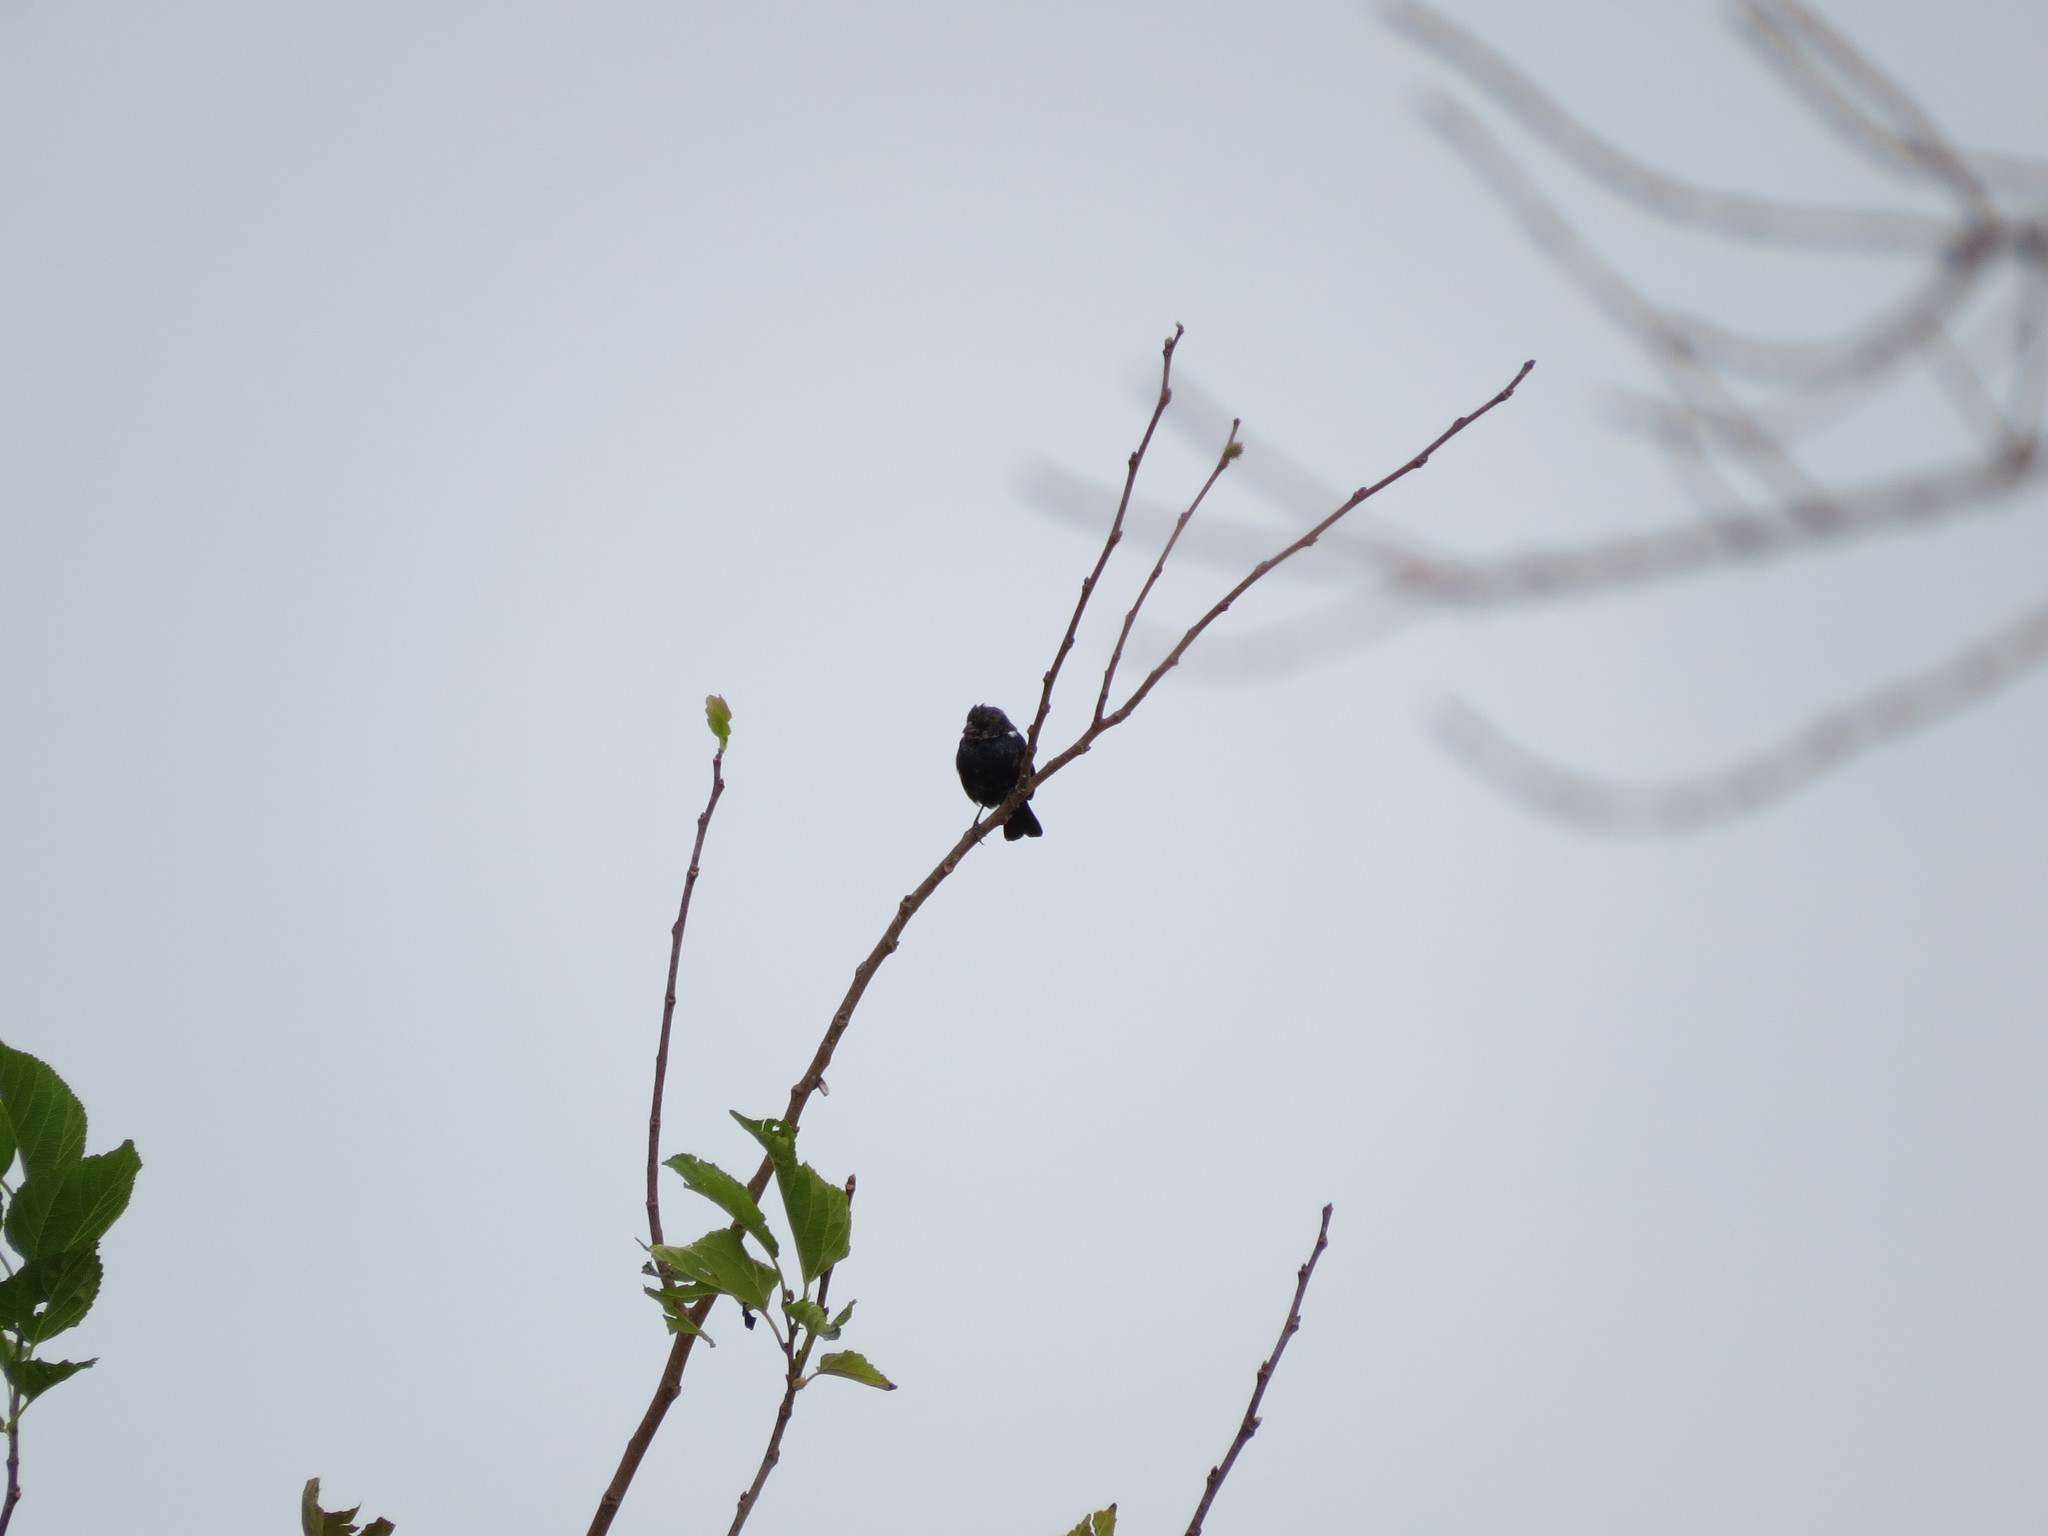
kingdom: Animalia
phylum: Chordata
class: Aves
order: Passeriformes
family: Thraupidae
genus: Volatinia
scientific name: Volatinia jacarina
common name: Blue-black grassquit
